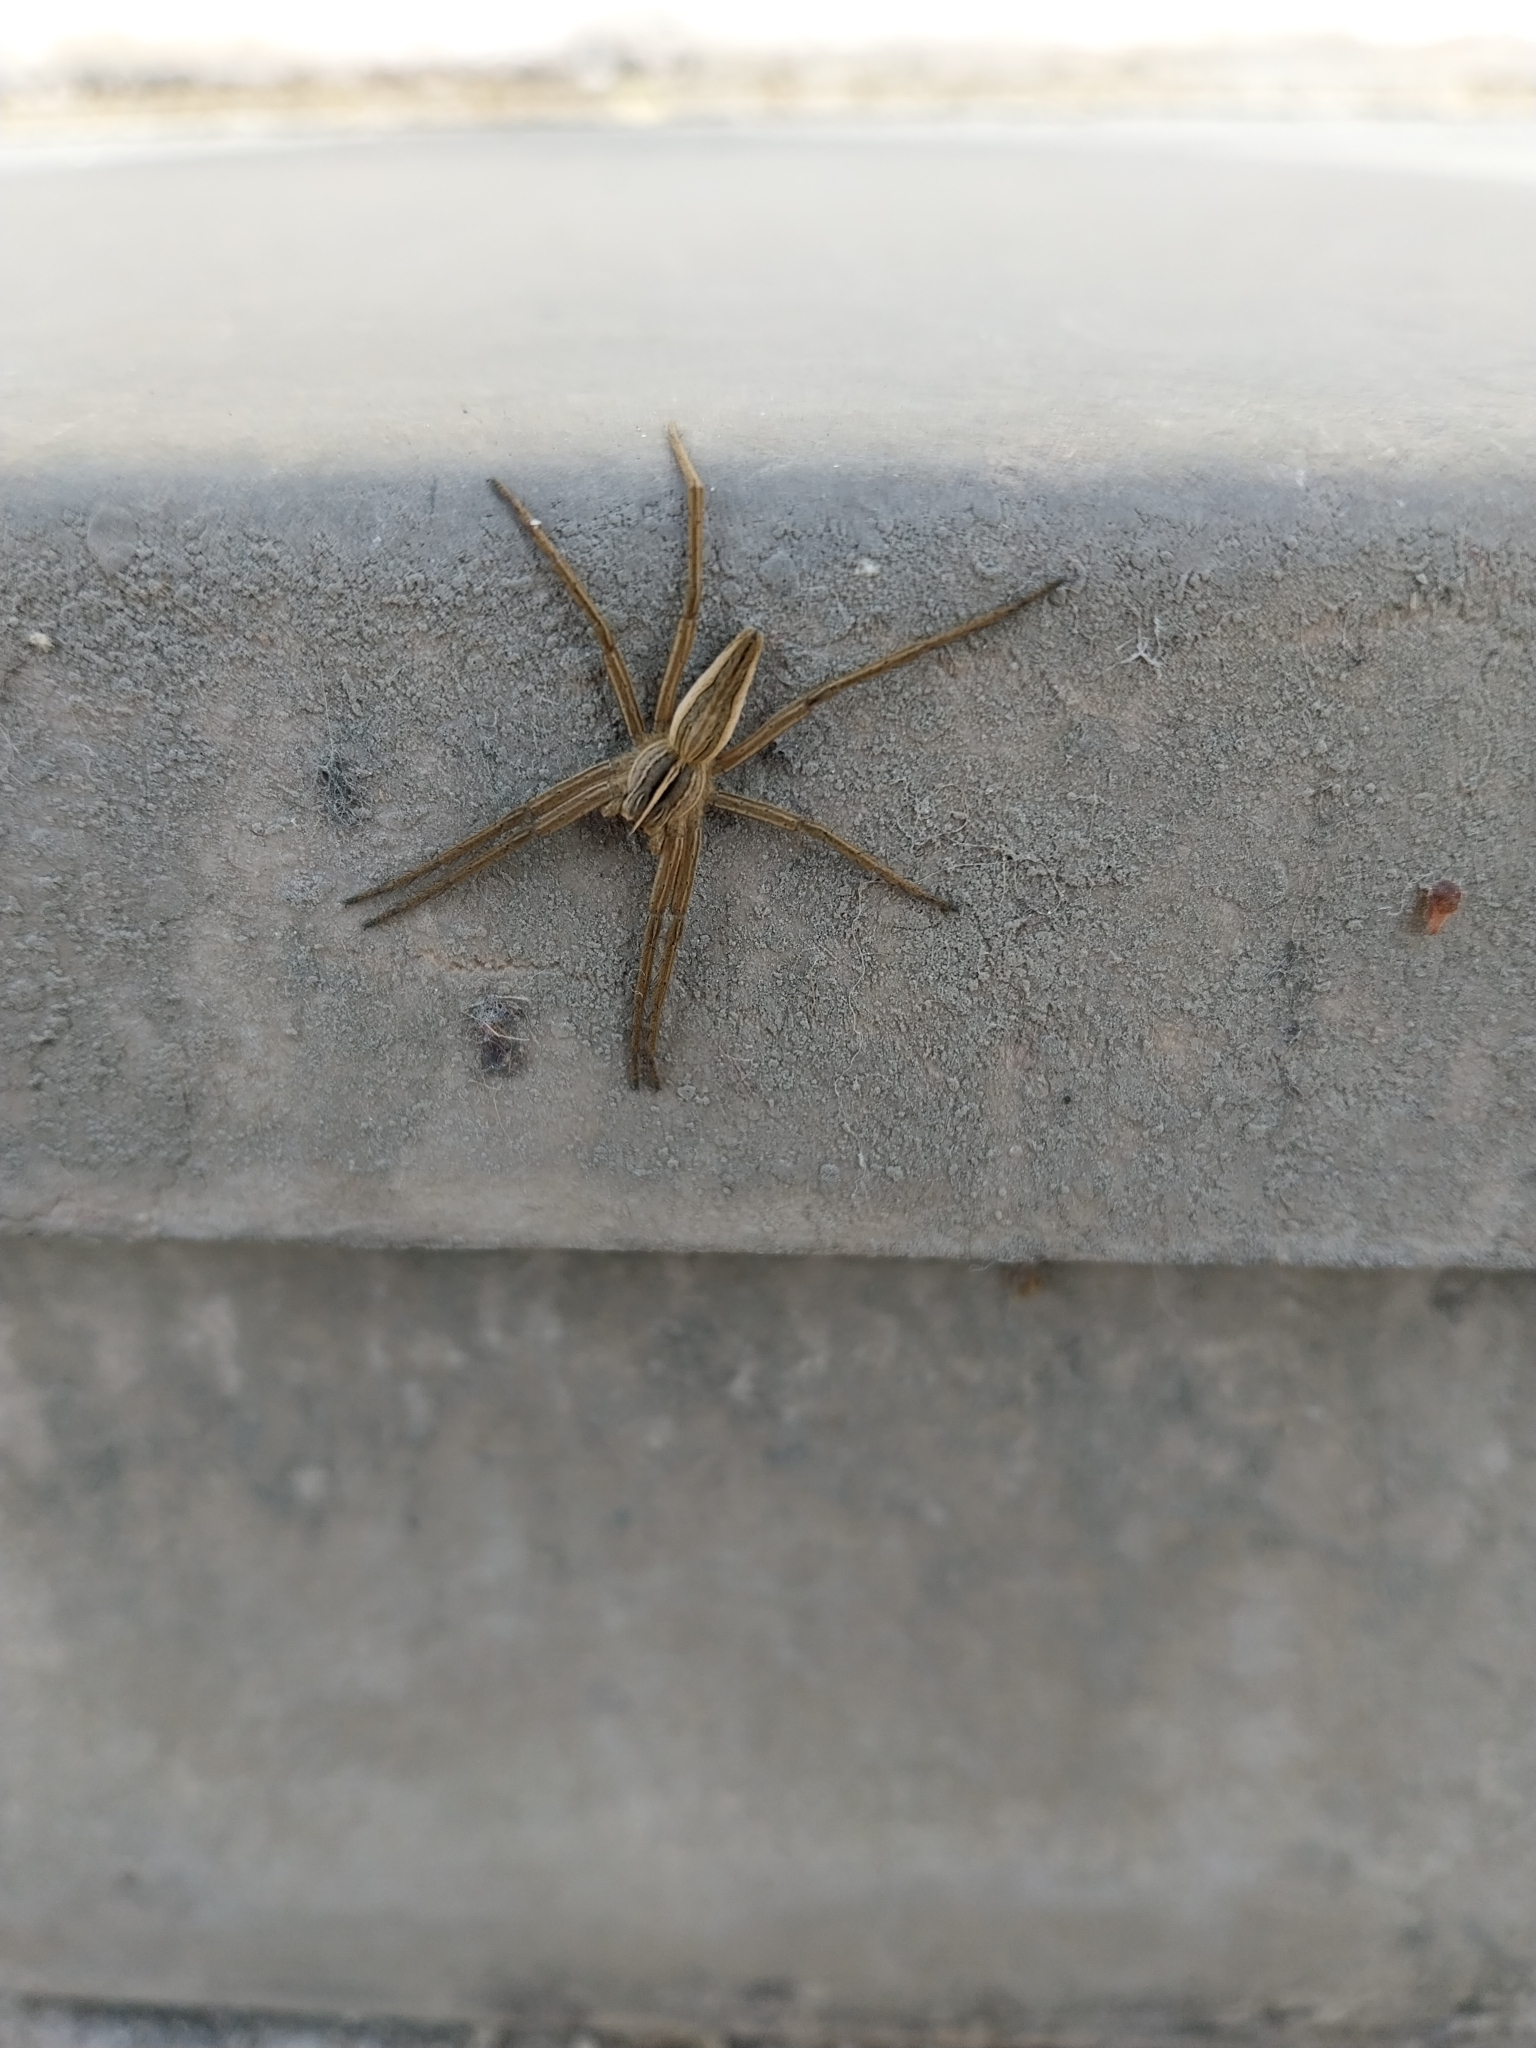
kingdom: Animalia
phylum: Arthropoda
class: Arachnida
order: Araneae
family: Pisauridae
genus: Pisaura
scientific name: Pisaura mirabilis
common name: Tent spider
